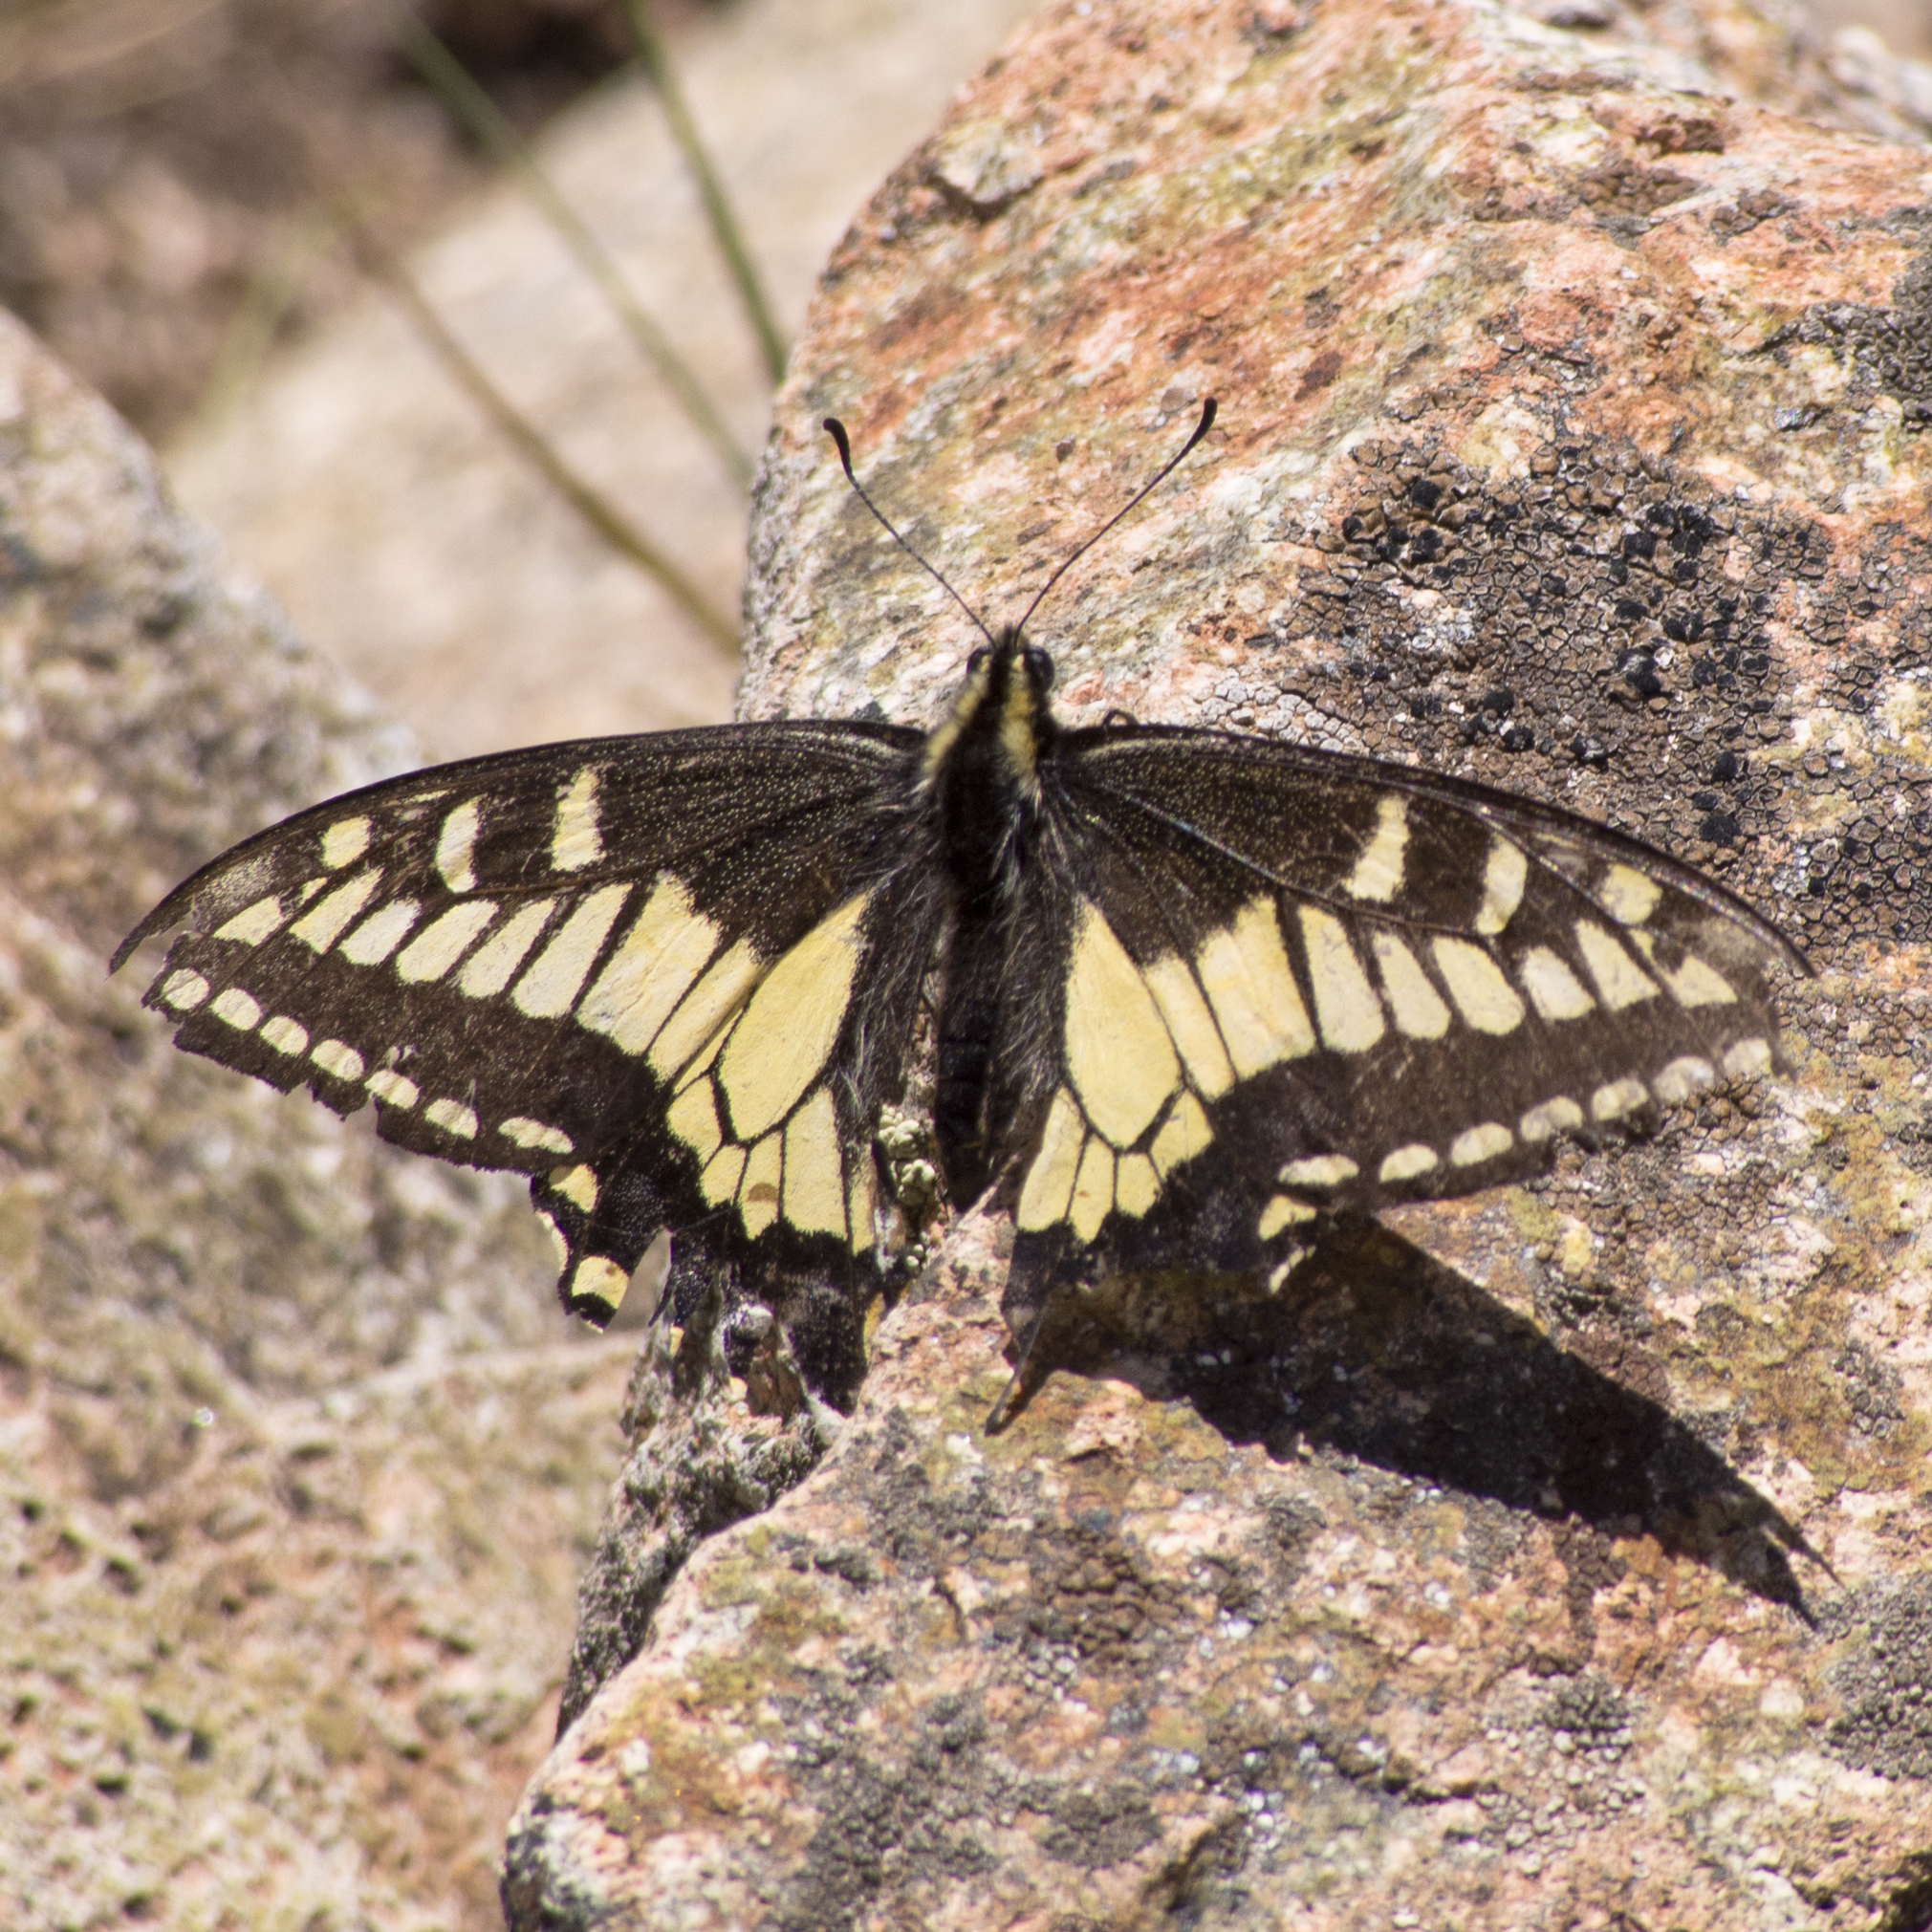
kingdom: Animalia
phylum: Arthropoda
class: Insecta
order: Lepidoptera
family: Papilionidae
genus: Papilio
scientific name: Papilio zelicaon
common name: Anise swallowtail
